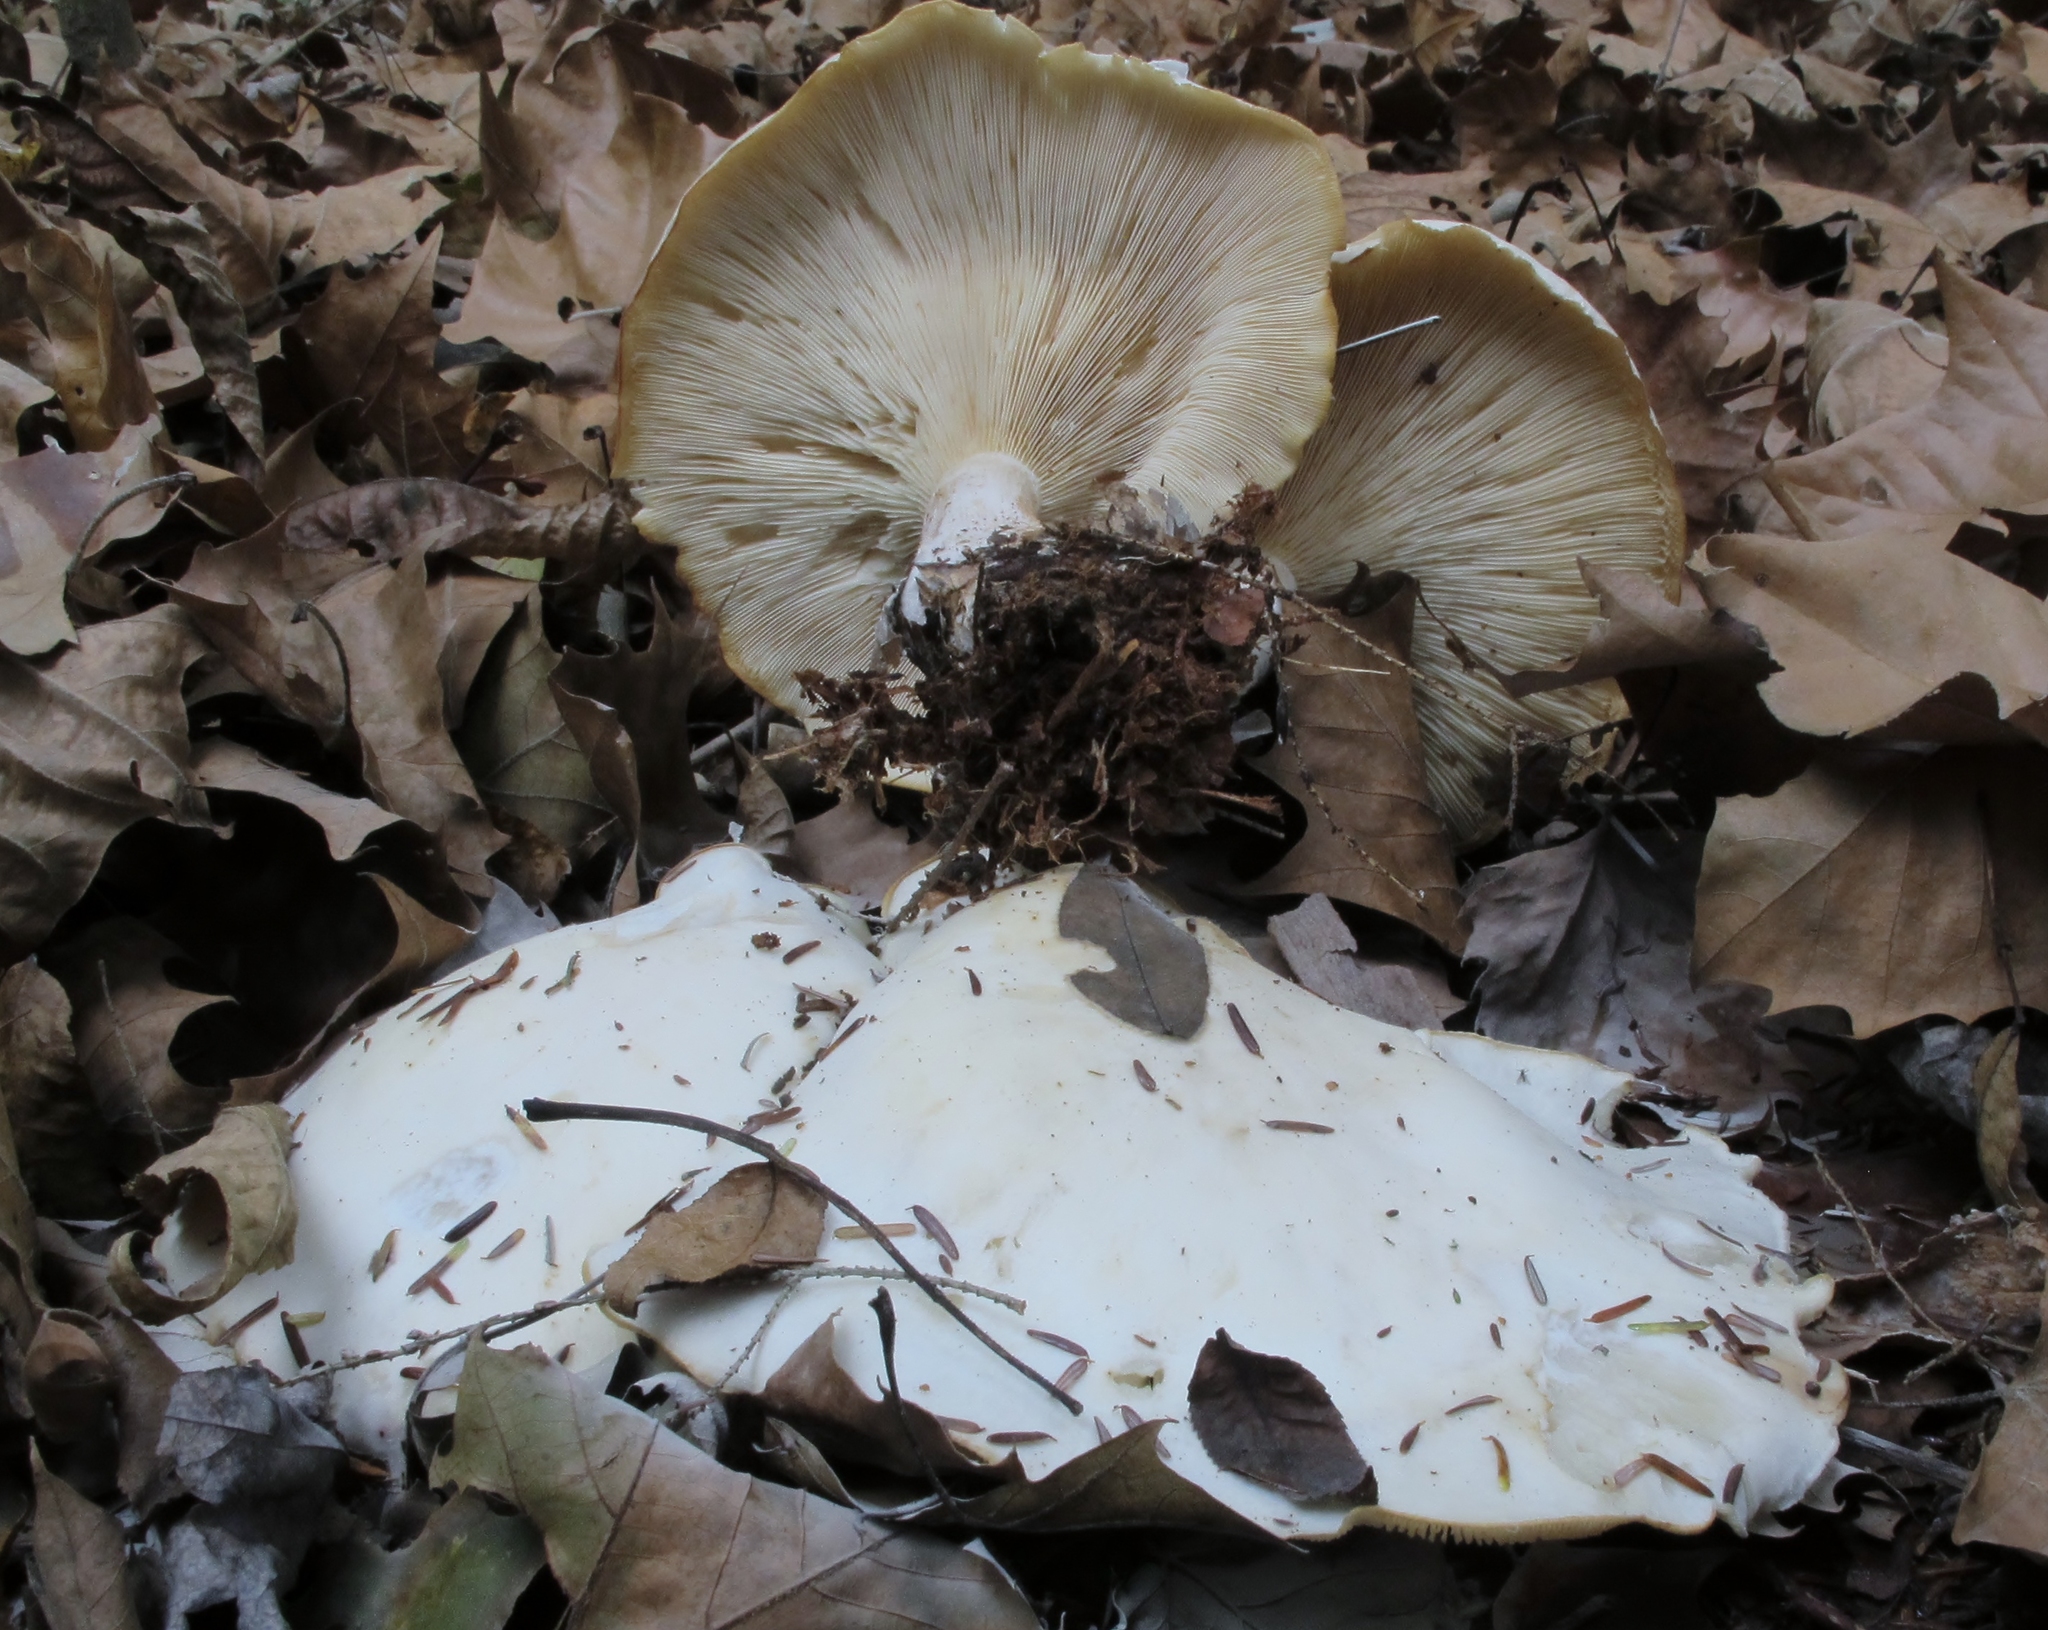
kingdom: Fungi
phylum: Basidiomycota
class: Agaricomycetes
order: Agaricales
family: Tricholomataceae
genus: Clitocybe
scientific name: Clitocybe robusta
